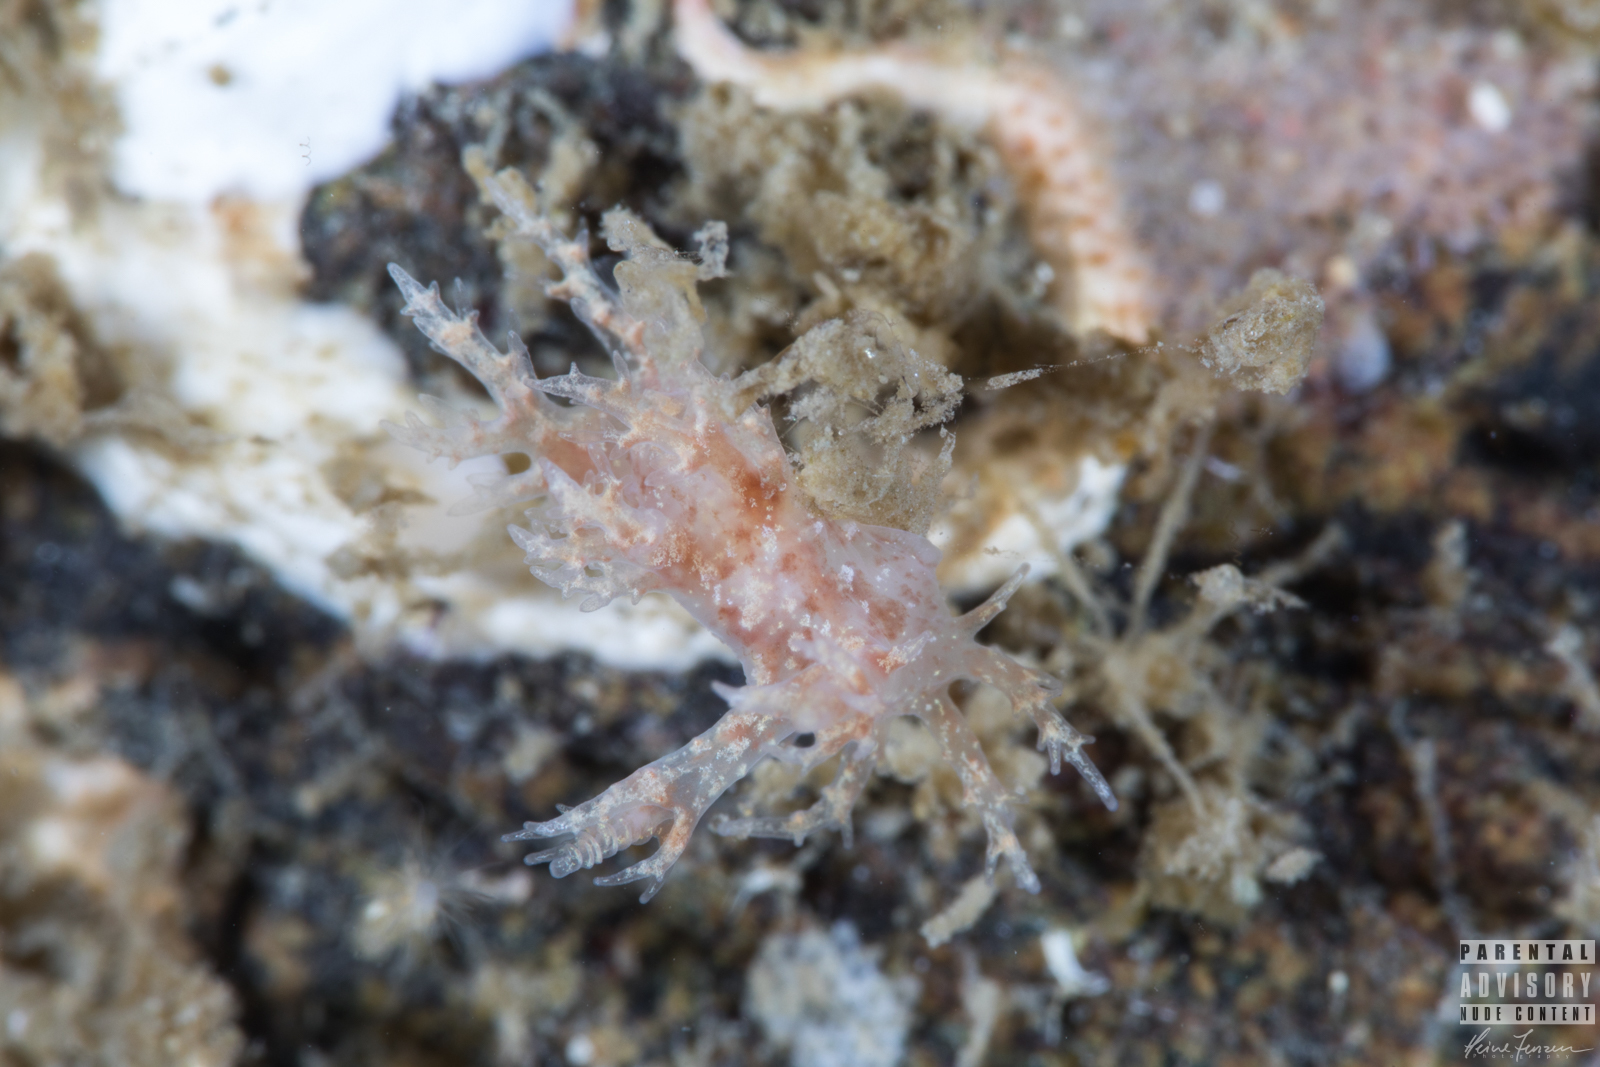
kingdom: Animalia
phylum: Mollusca
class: Gastropoda
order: Nudibranchia
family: Dendronotidae
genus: Dendronotus
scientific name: Dendronotus frondosus
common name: Bushy-backed nudibranch
